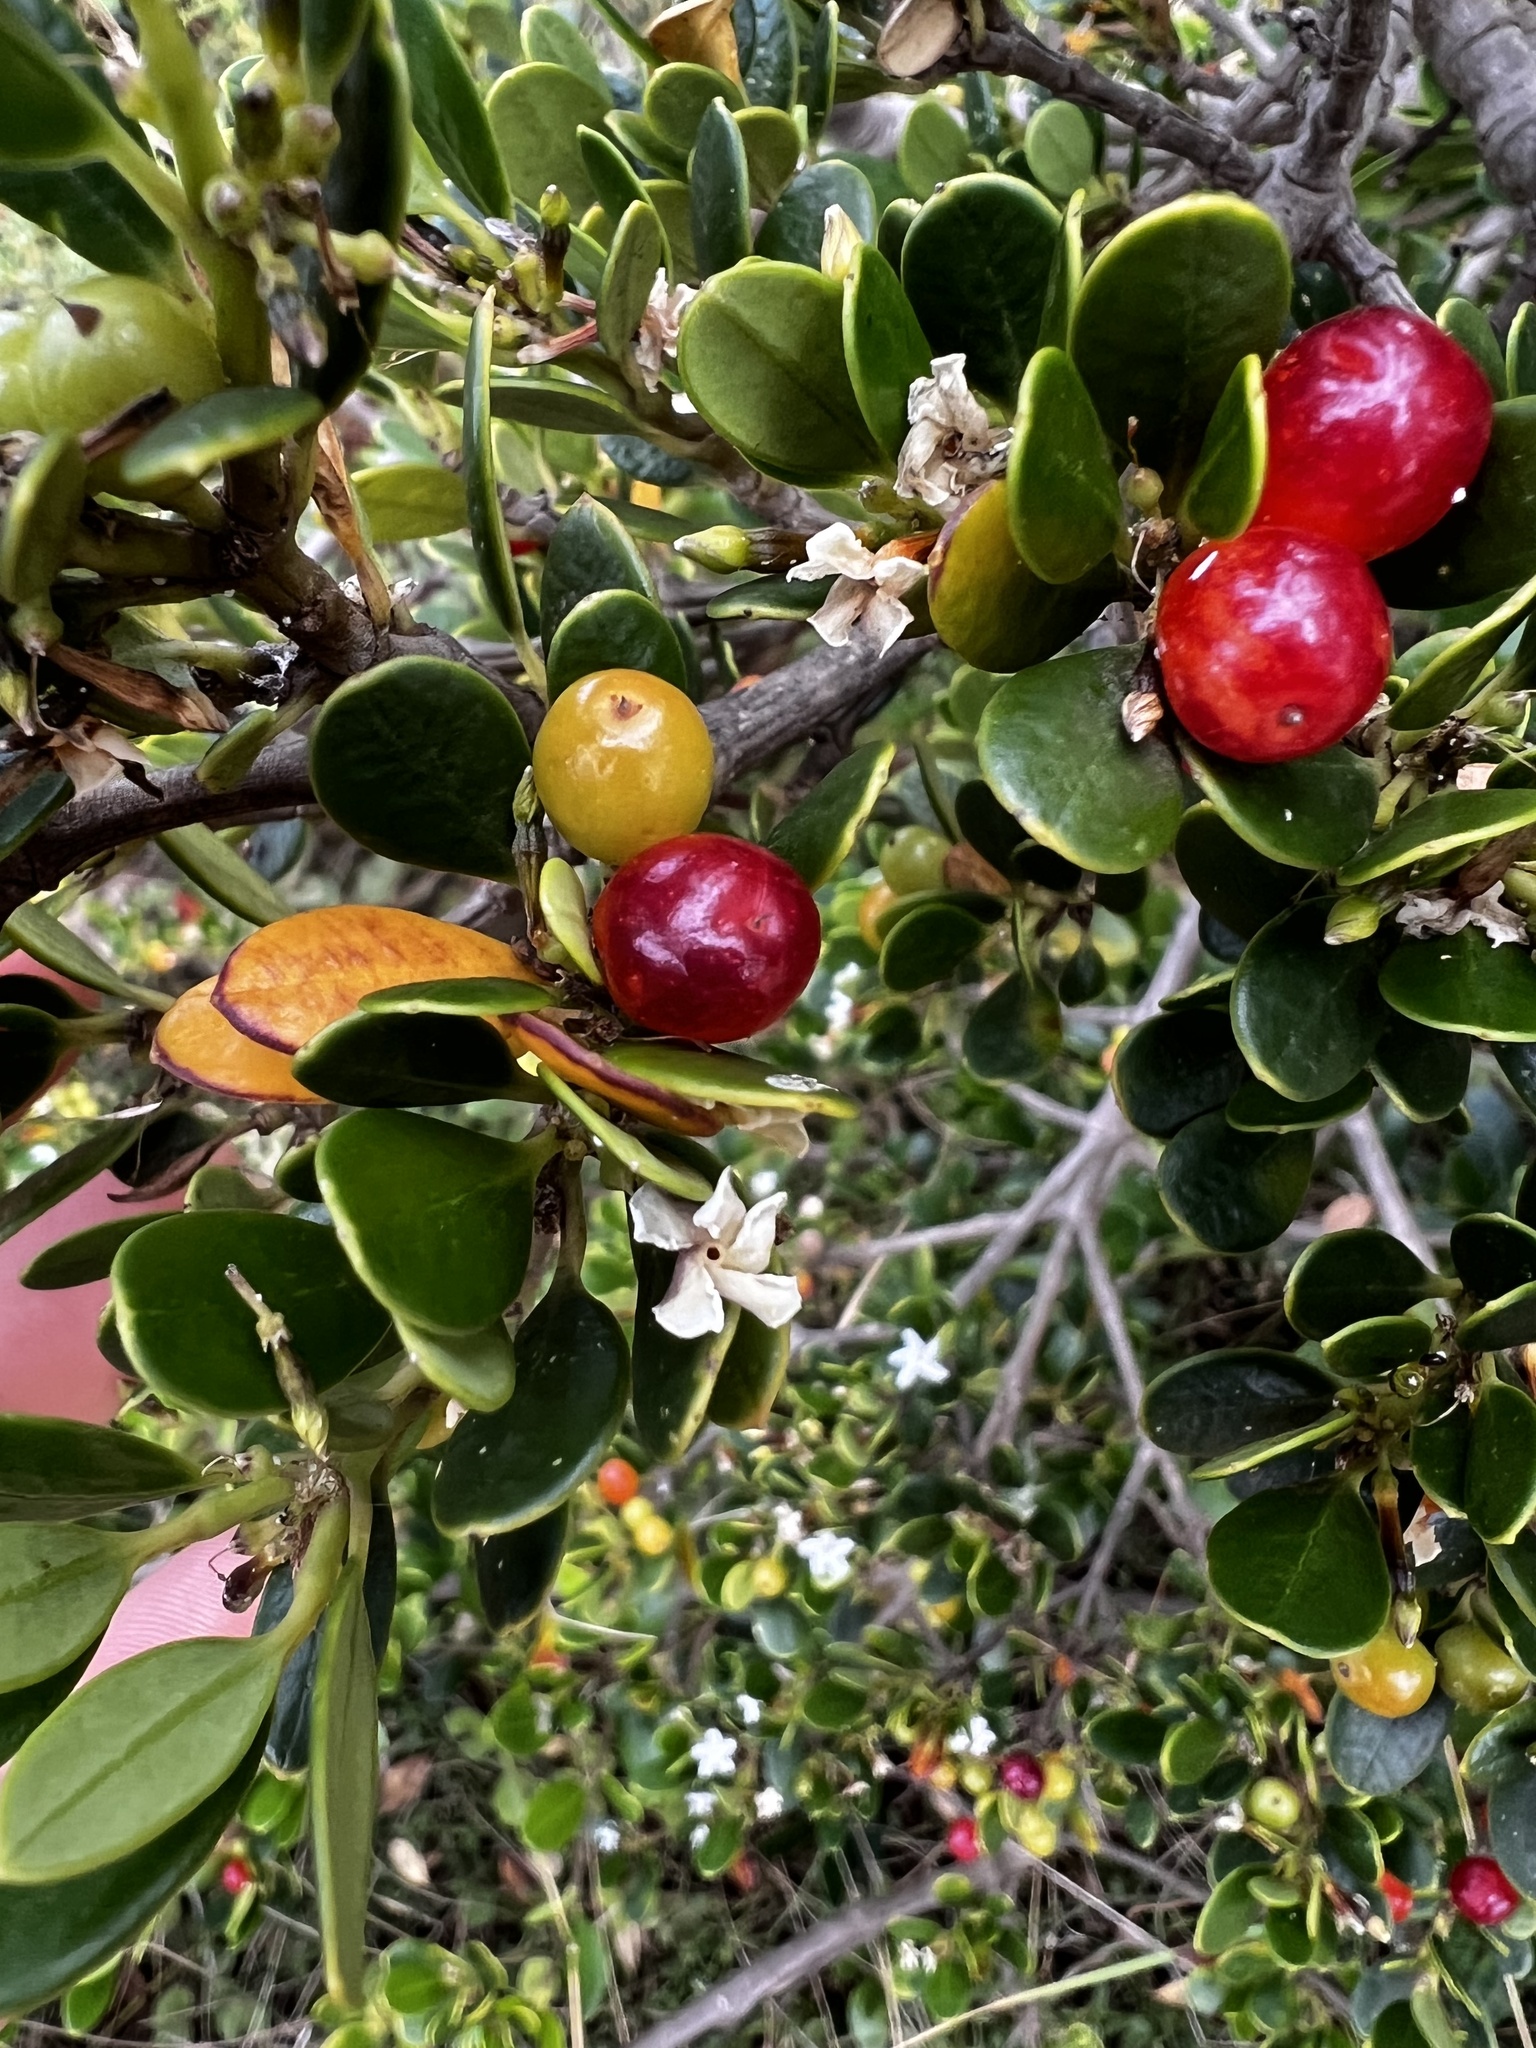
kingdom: Plantae
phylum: Tracheophyta
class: Magnoliopsida
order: Gentianales
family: Apocynaceae
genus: Alyxia
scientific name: Alyxia buxifolia
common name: Dysentery-bush
